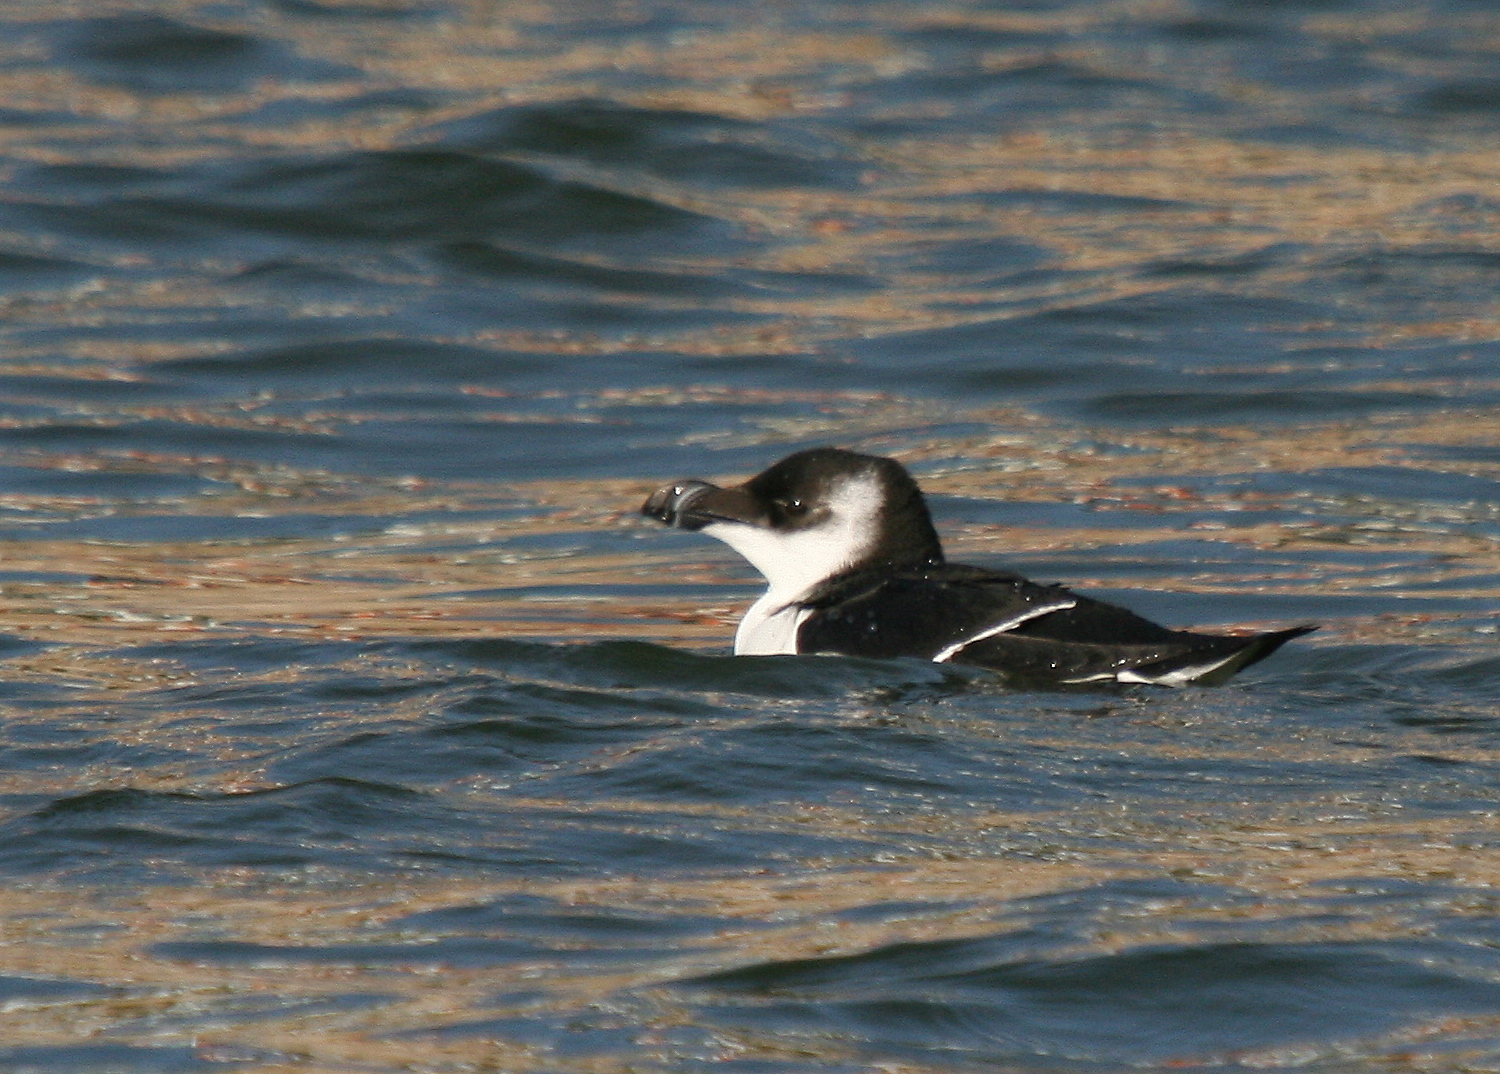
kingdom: Animalia
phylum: Chordata
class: Aves
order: Charadriiformes
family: Alcidae
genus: Alca
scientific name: Alca torda
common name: Razorbill
